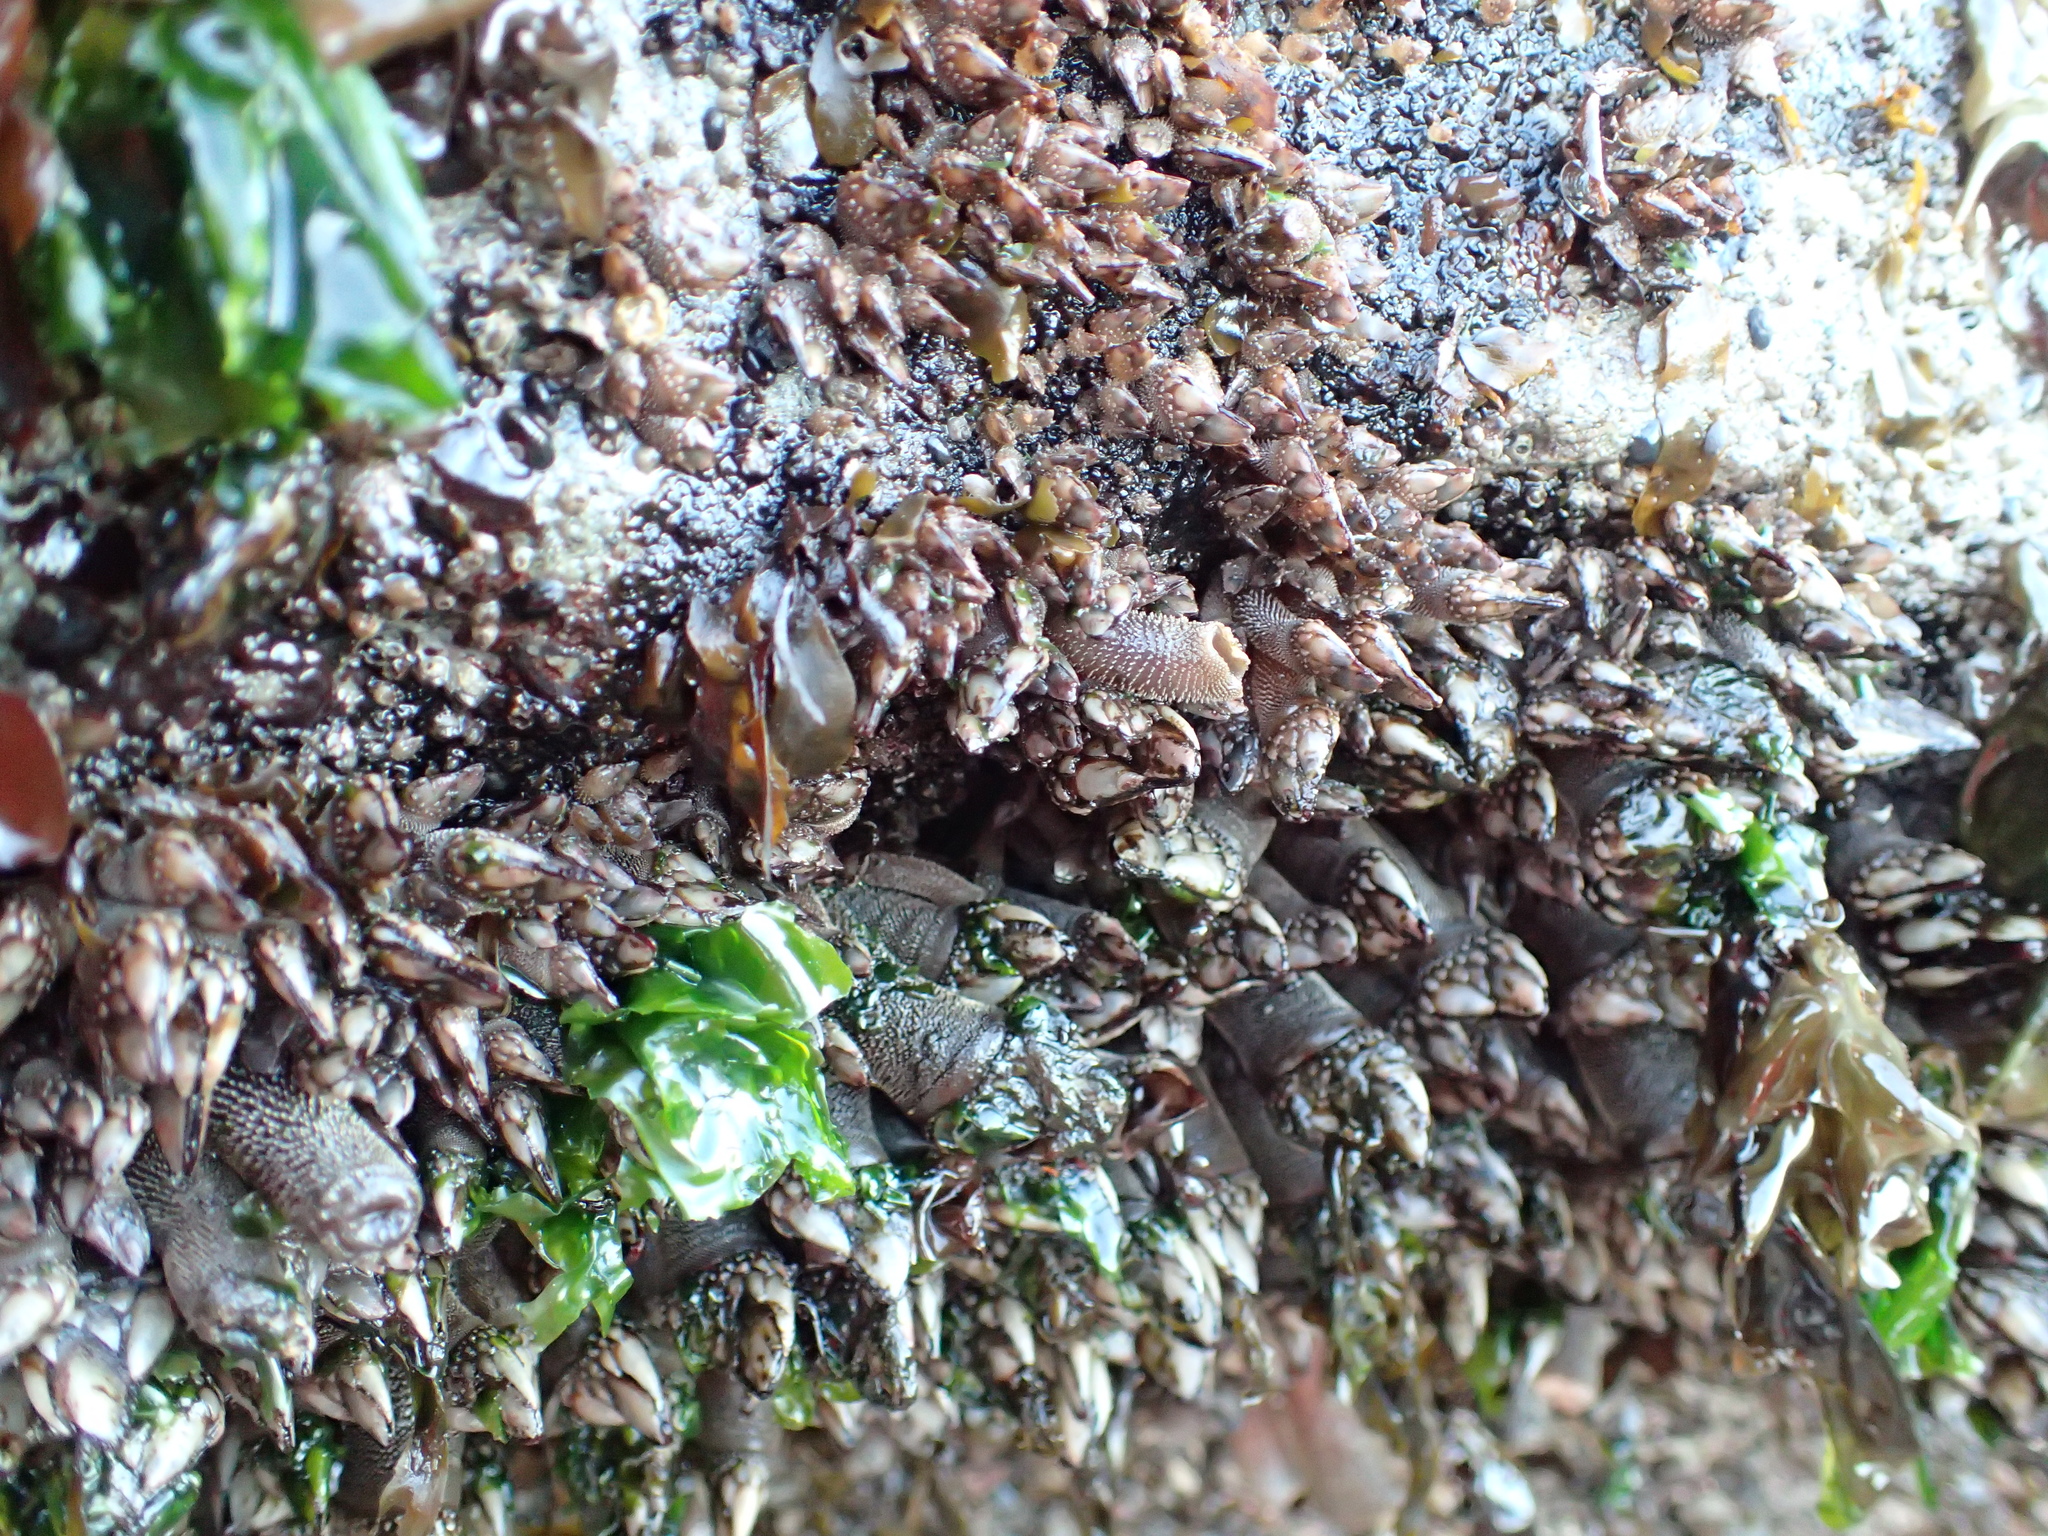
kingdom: Animalia
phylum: Arthropoda
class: Maxillopoda
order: Pedunculata
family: Pollicipedidae
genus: Pollicipes
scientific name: Pollicipes polymerus
